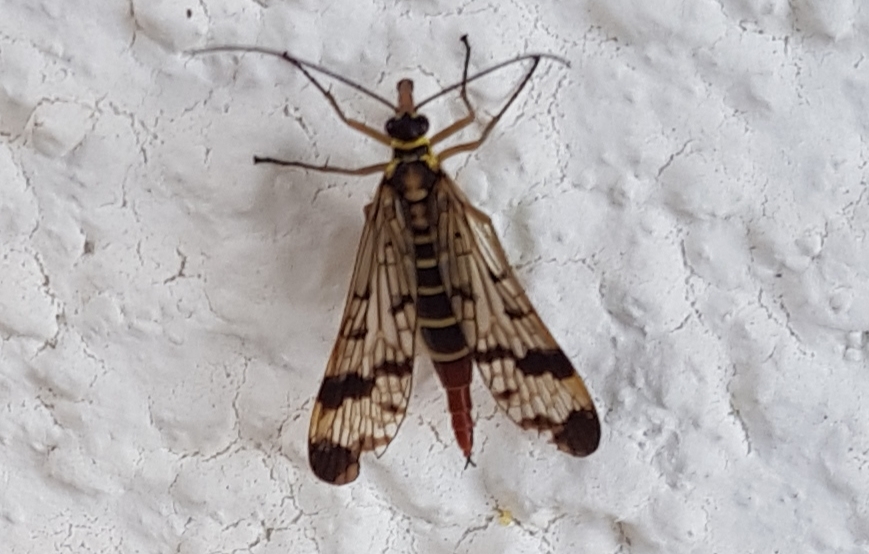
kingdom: Animalia
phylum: Arthropoda
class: Insecta
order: Mecoptera
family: Panorpidae
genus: Panorpa
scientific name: Panorpa communis
